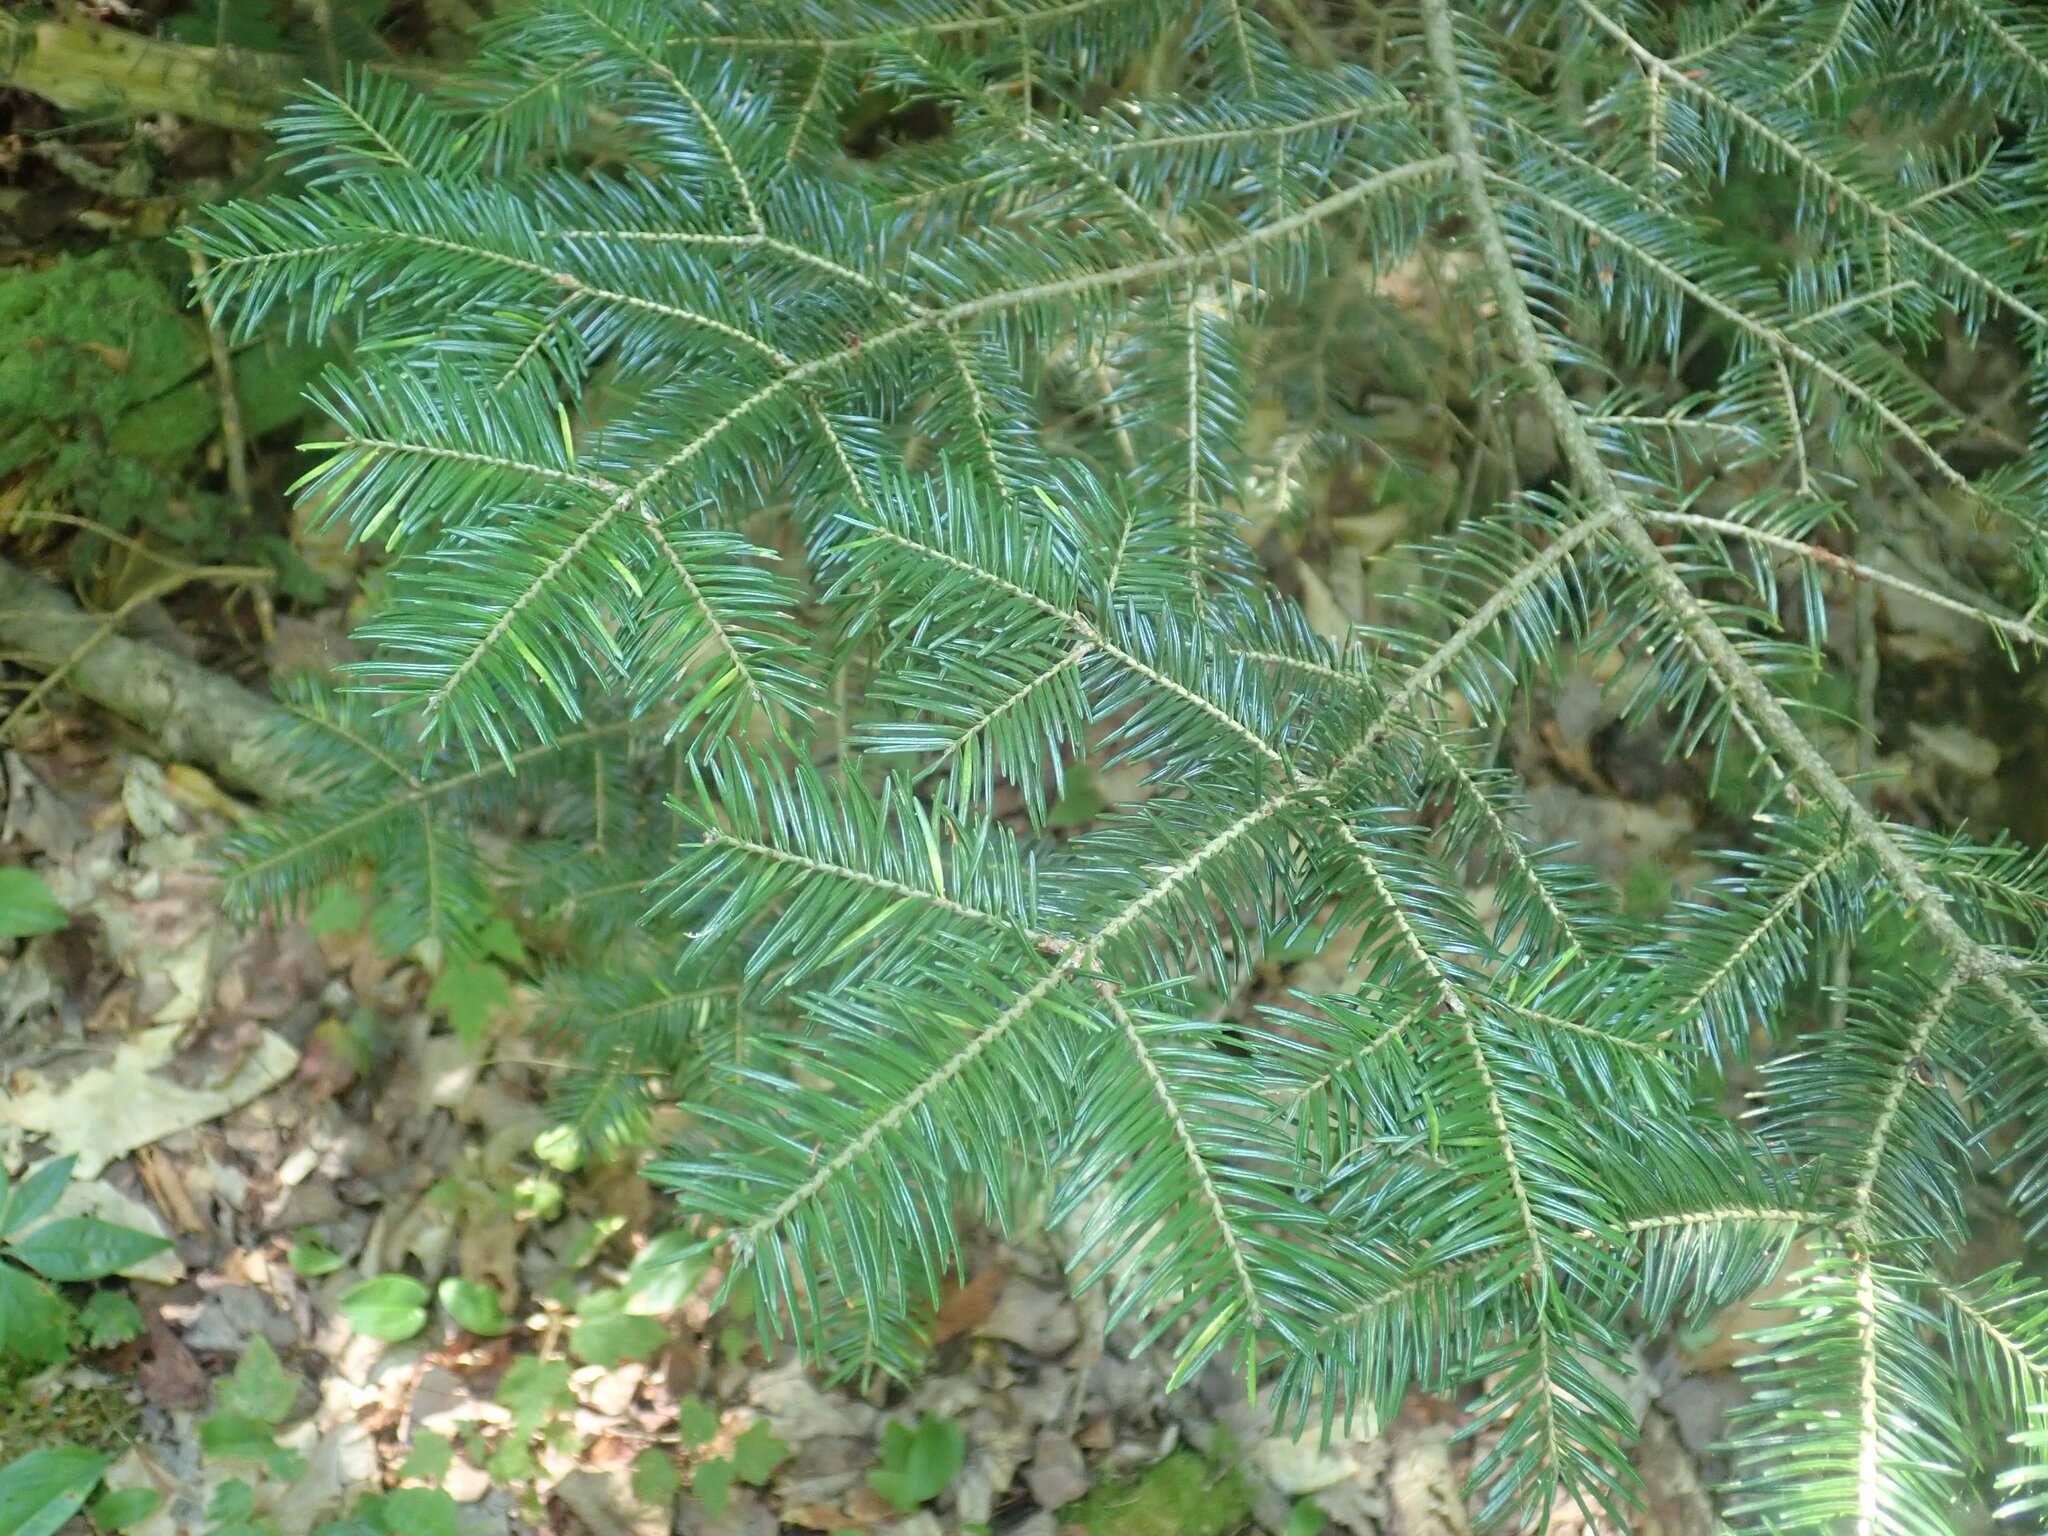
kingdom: Plantae
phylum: Tracheophyta
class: Pinopsida
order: Pinales
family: Pinaceae
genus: Abies
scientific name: Abies balsamea
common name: Balsam fir
